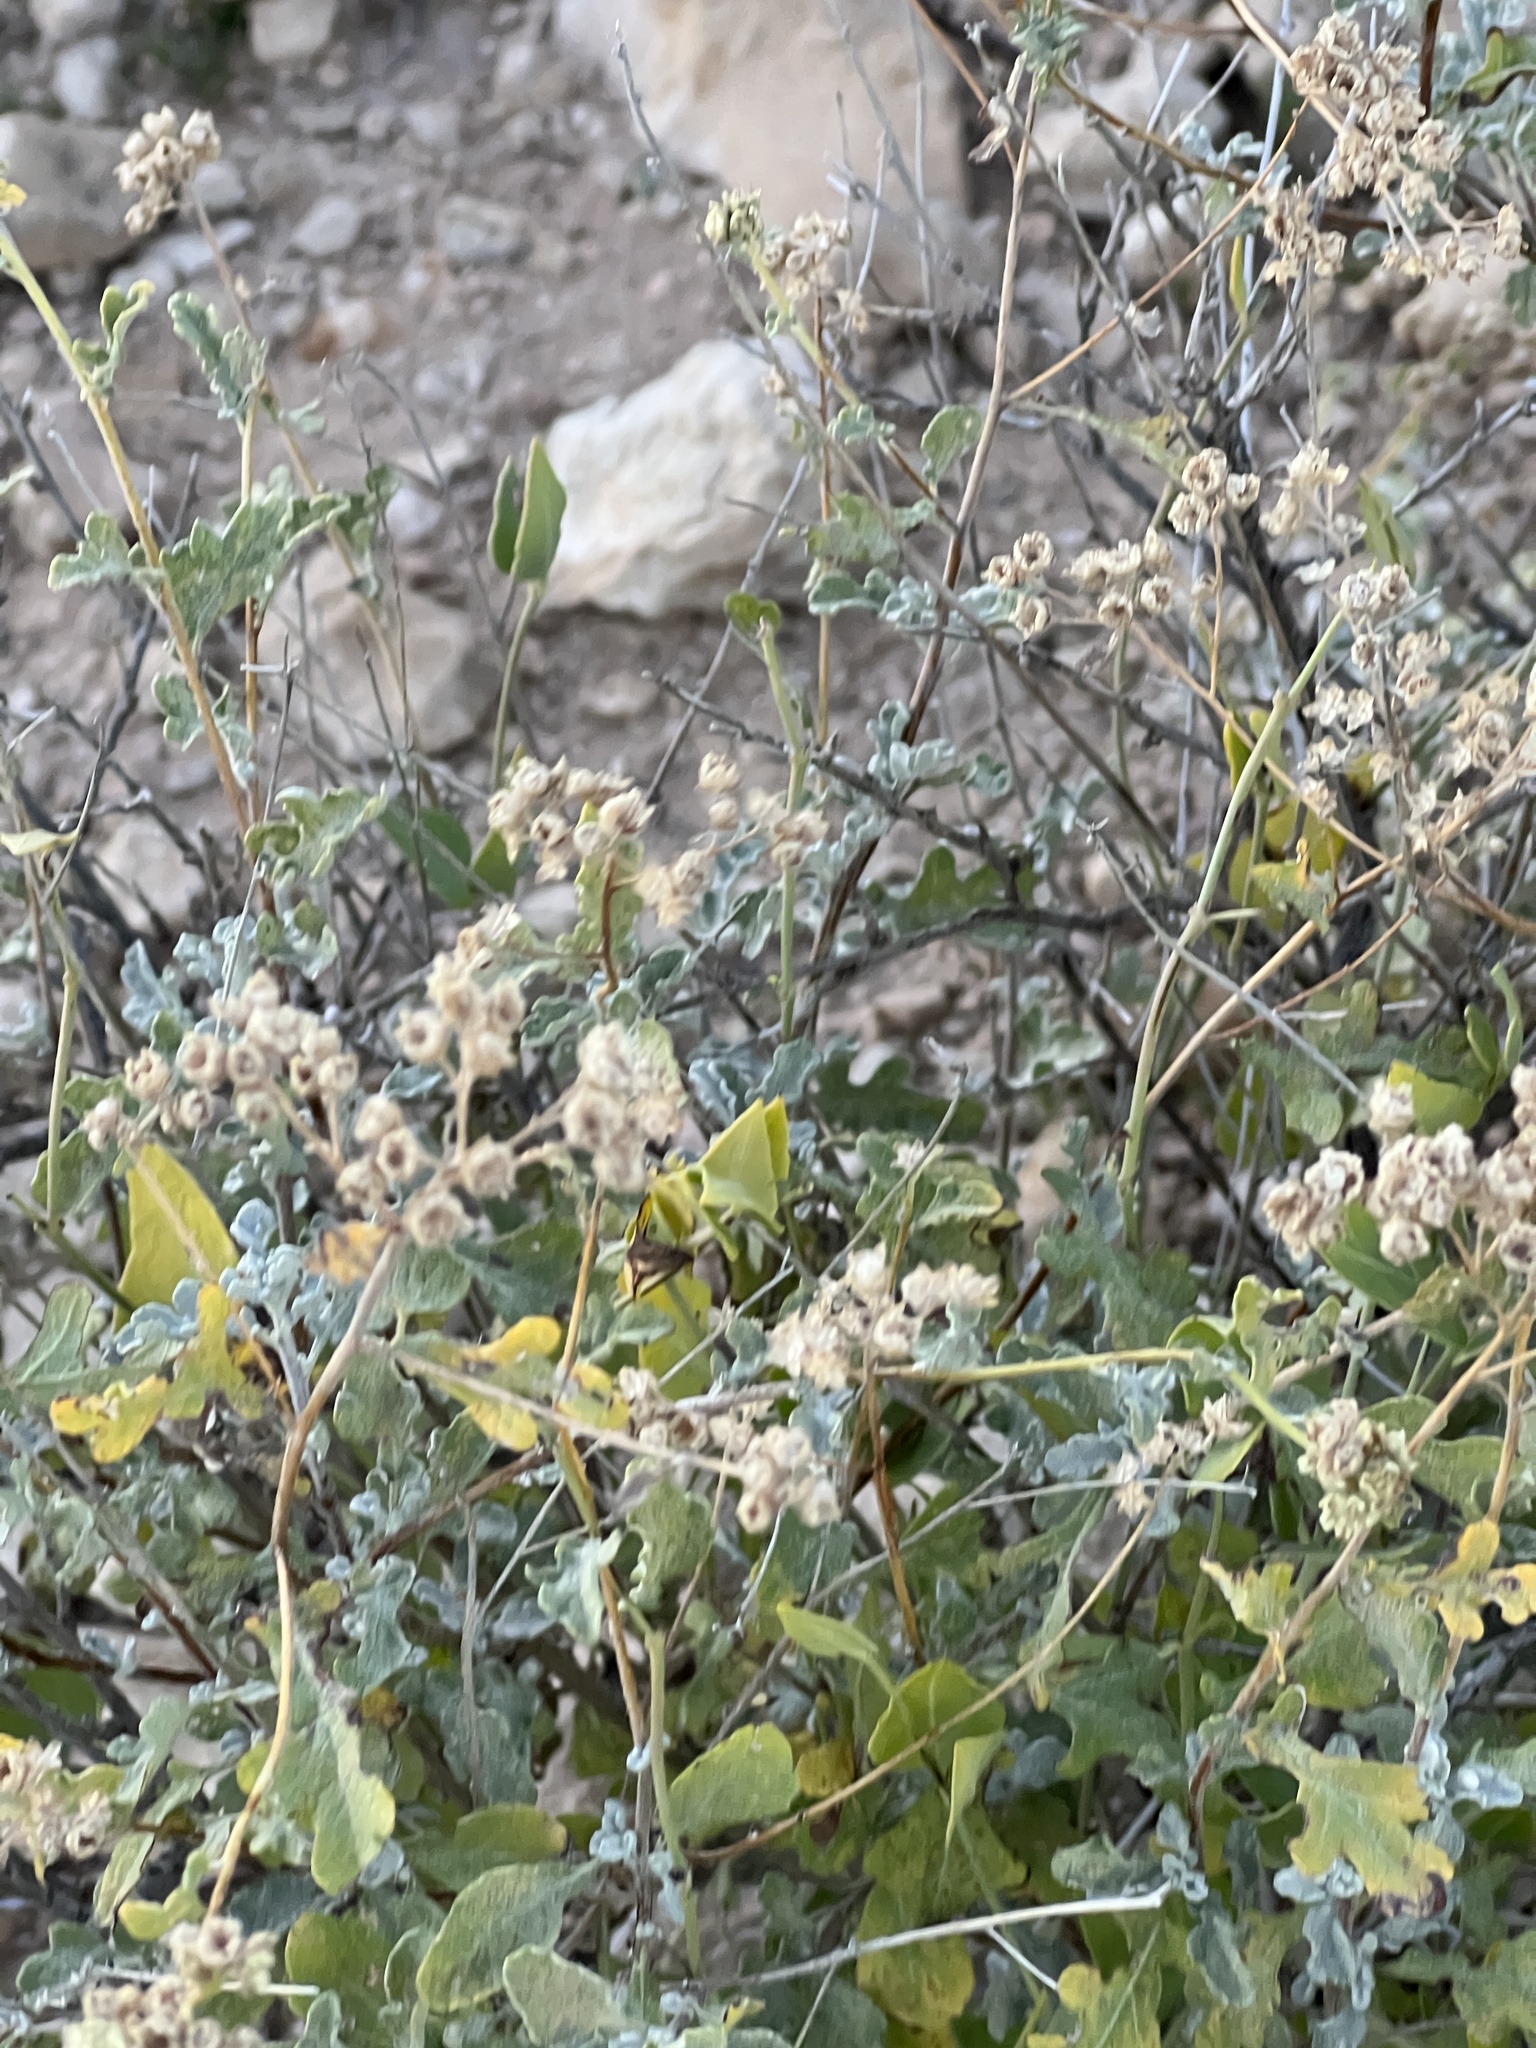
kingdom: Plantae
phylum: Tracheophyta
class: Magnoliopsida
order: Asterales
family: Asteraceae
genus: Parthenium
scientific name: Parthenium incanum
